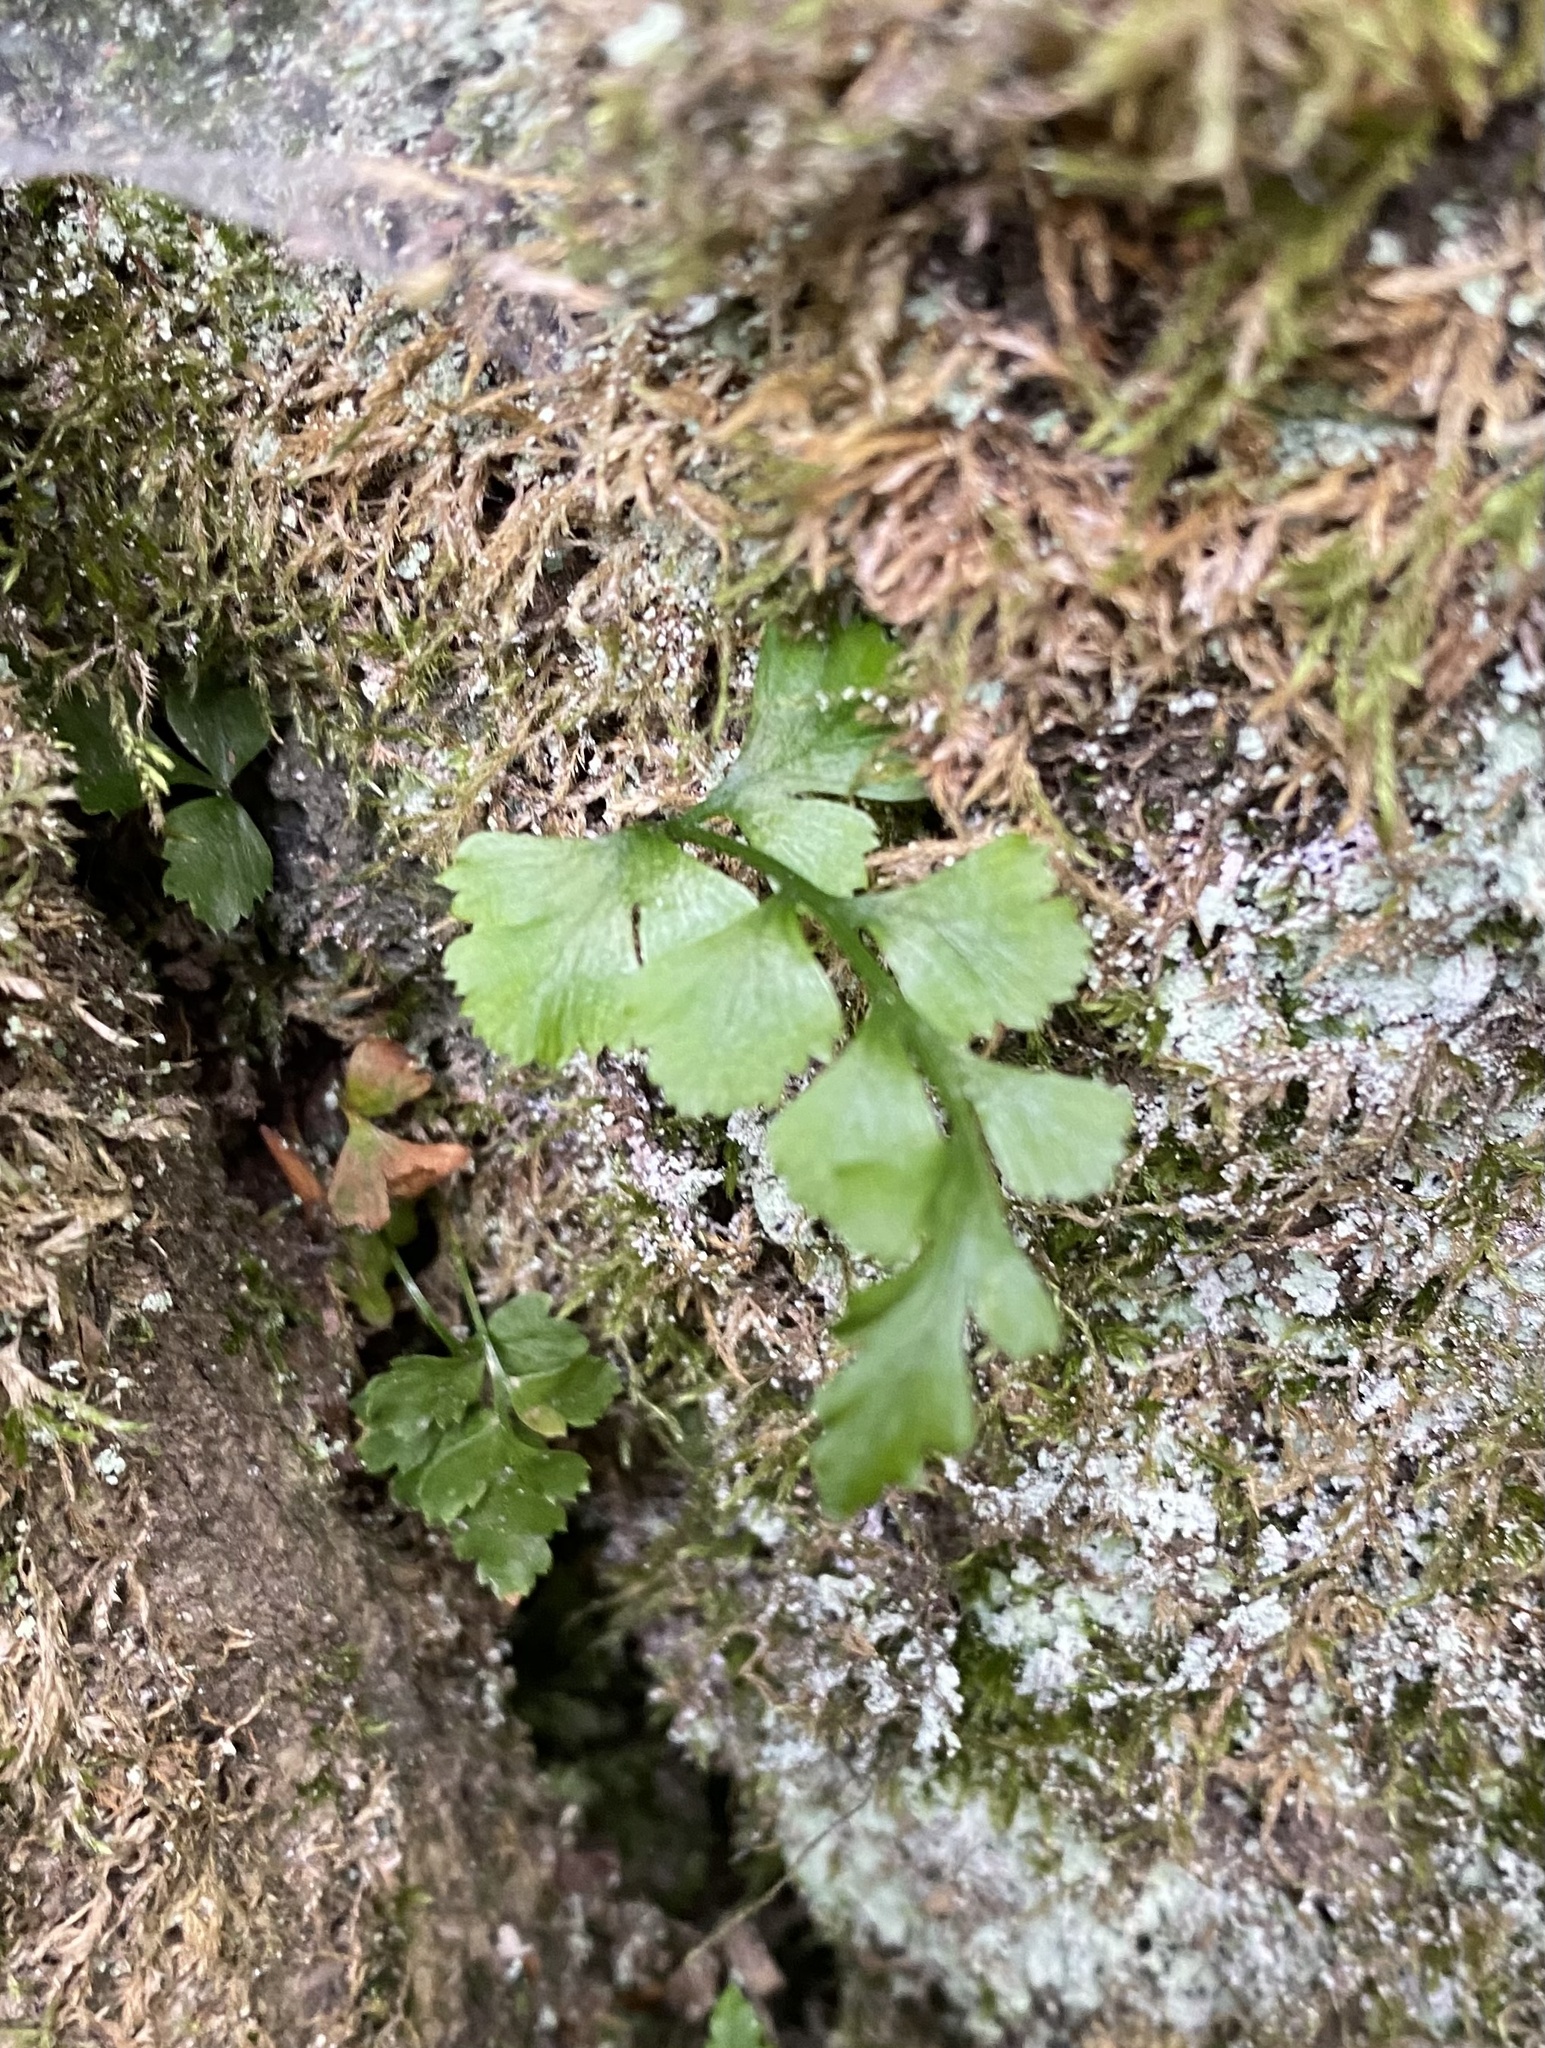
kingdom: Plantae
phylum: Tracheophyta
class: Polypodiopsida
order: Polypodiales
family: Aspleniaceae
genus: Asplenium
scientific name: Asplenium adiantum-nigrum
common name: Black spleenwort
